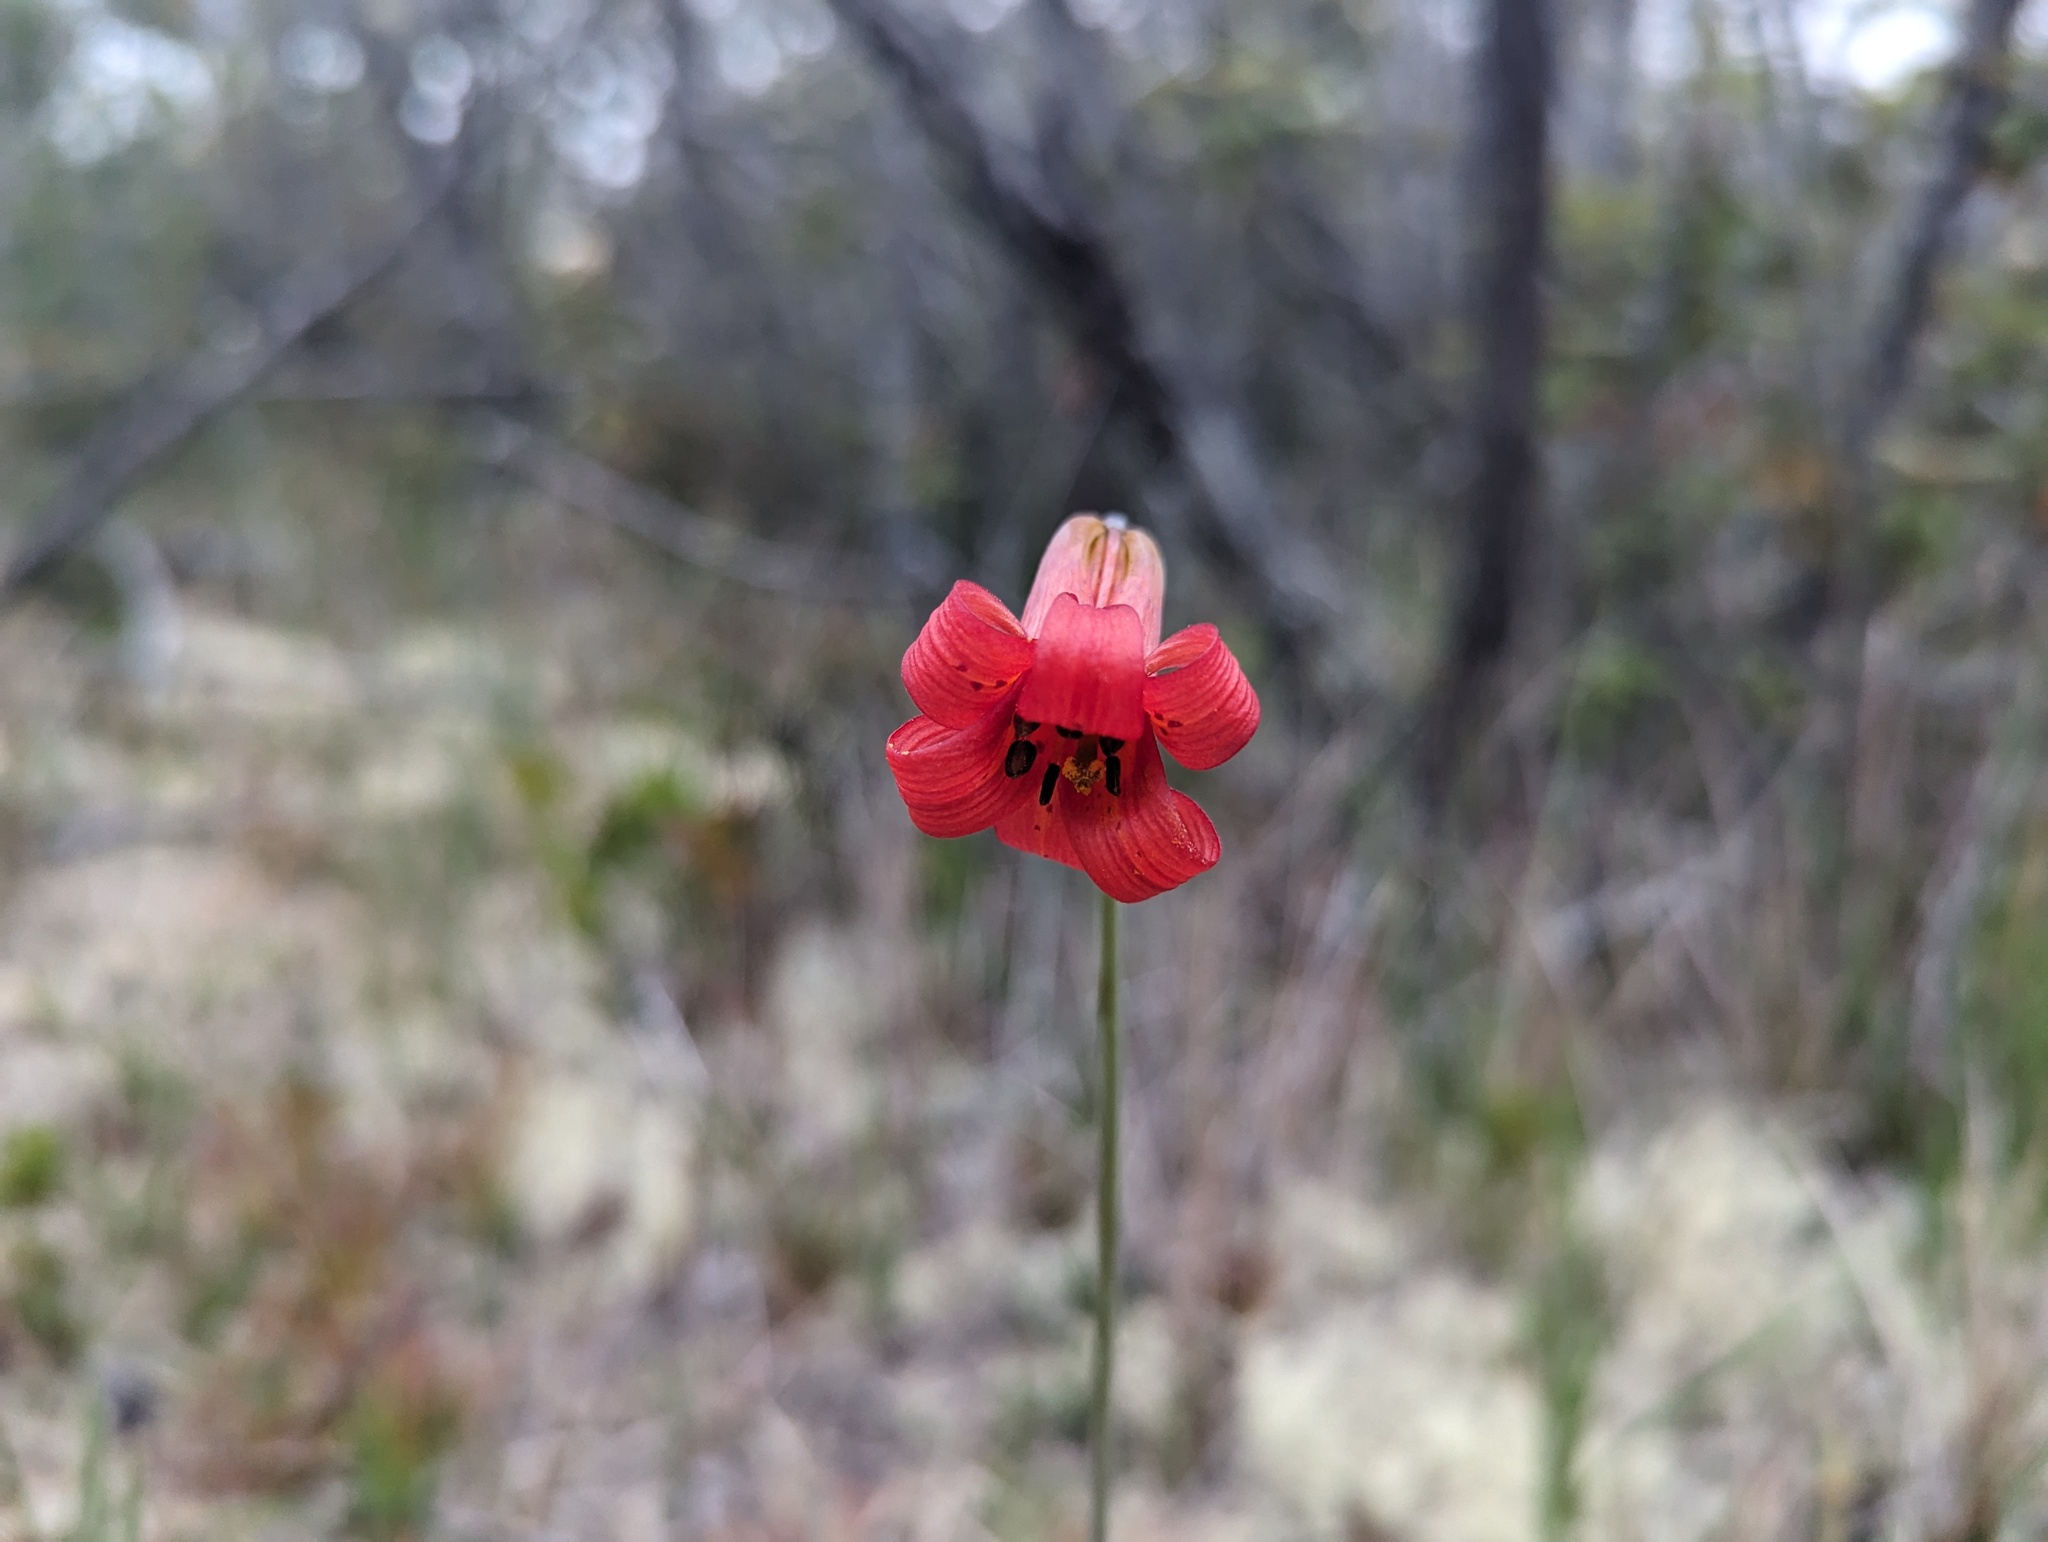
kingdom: Plantae
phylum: Tracheophyta
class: Liliopsida
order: Liliales
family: Liliaceae
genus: Lilium
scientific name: Lilium maritimum
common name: Coastal lily
